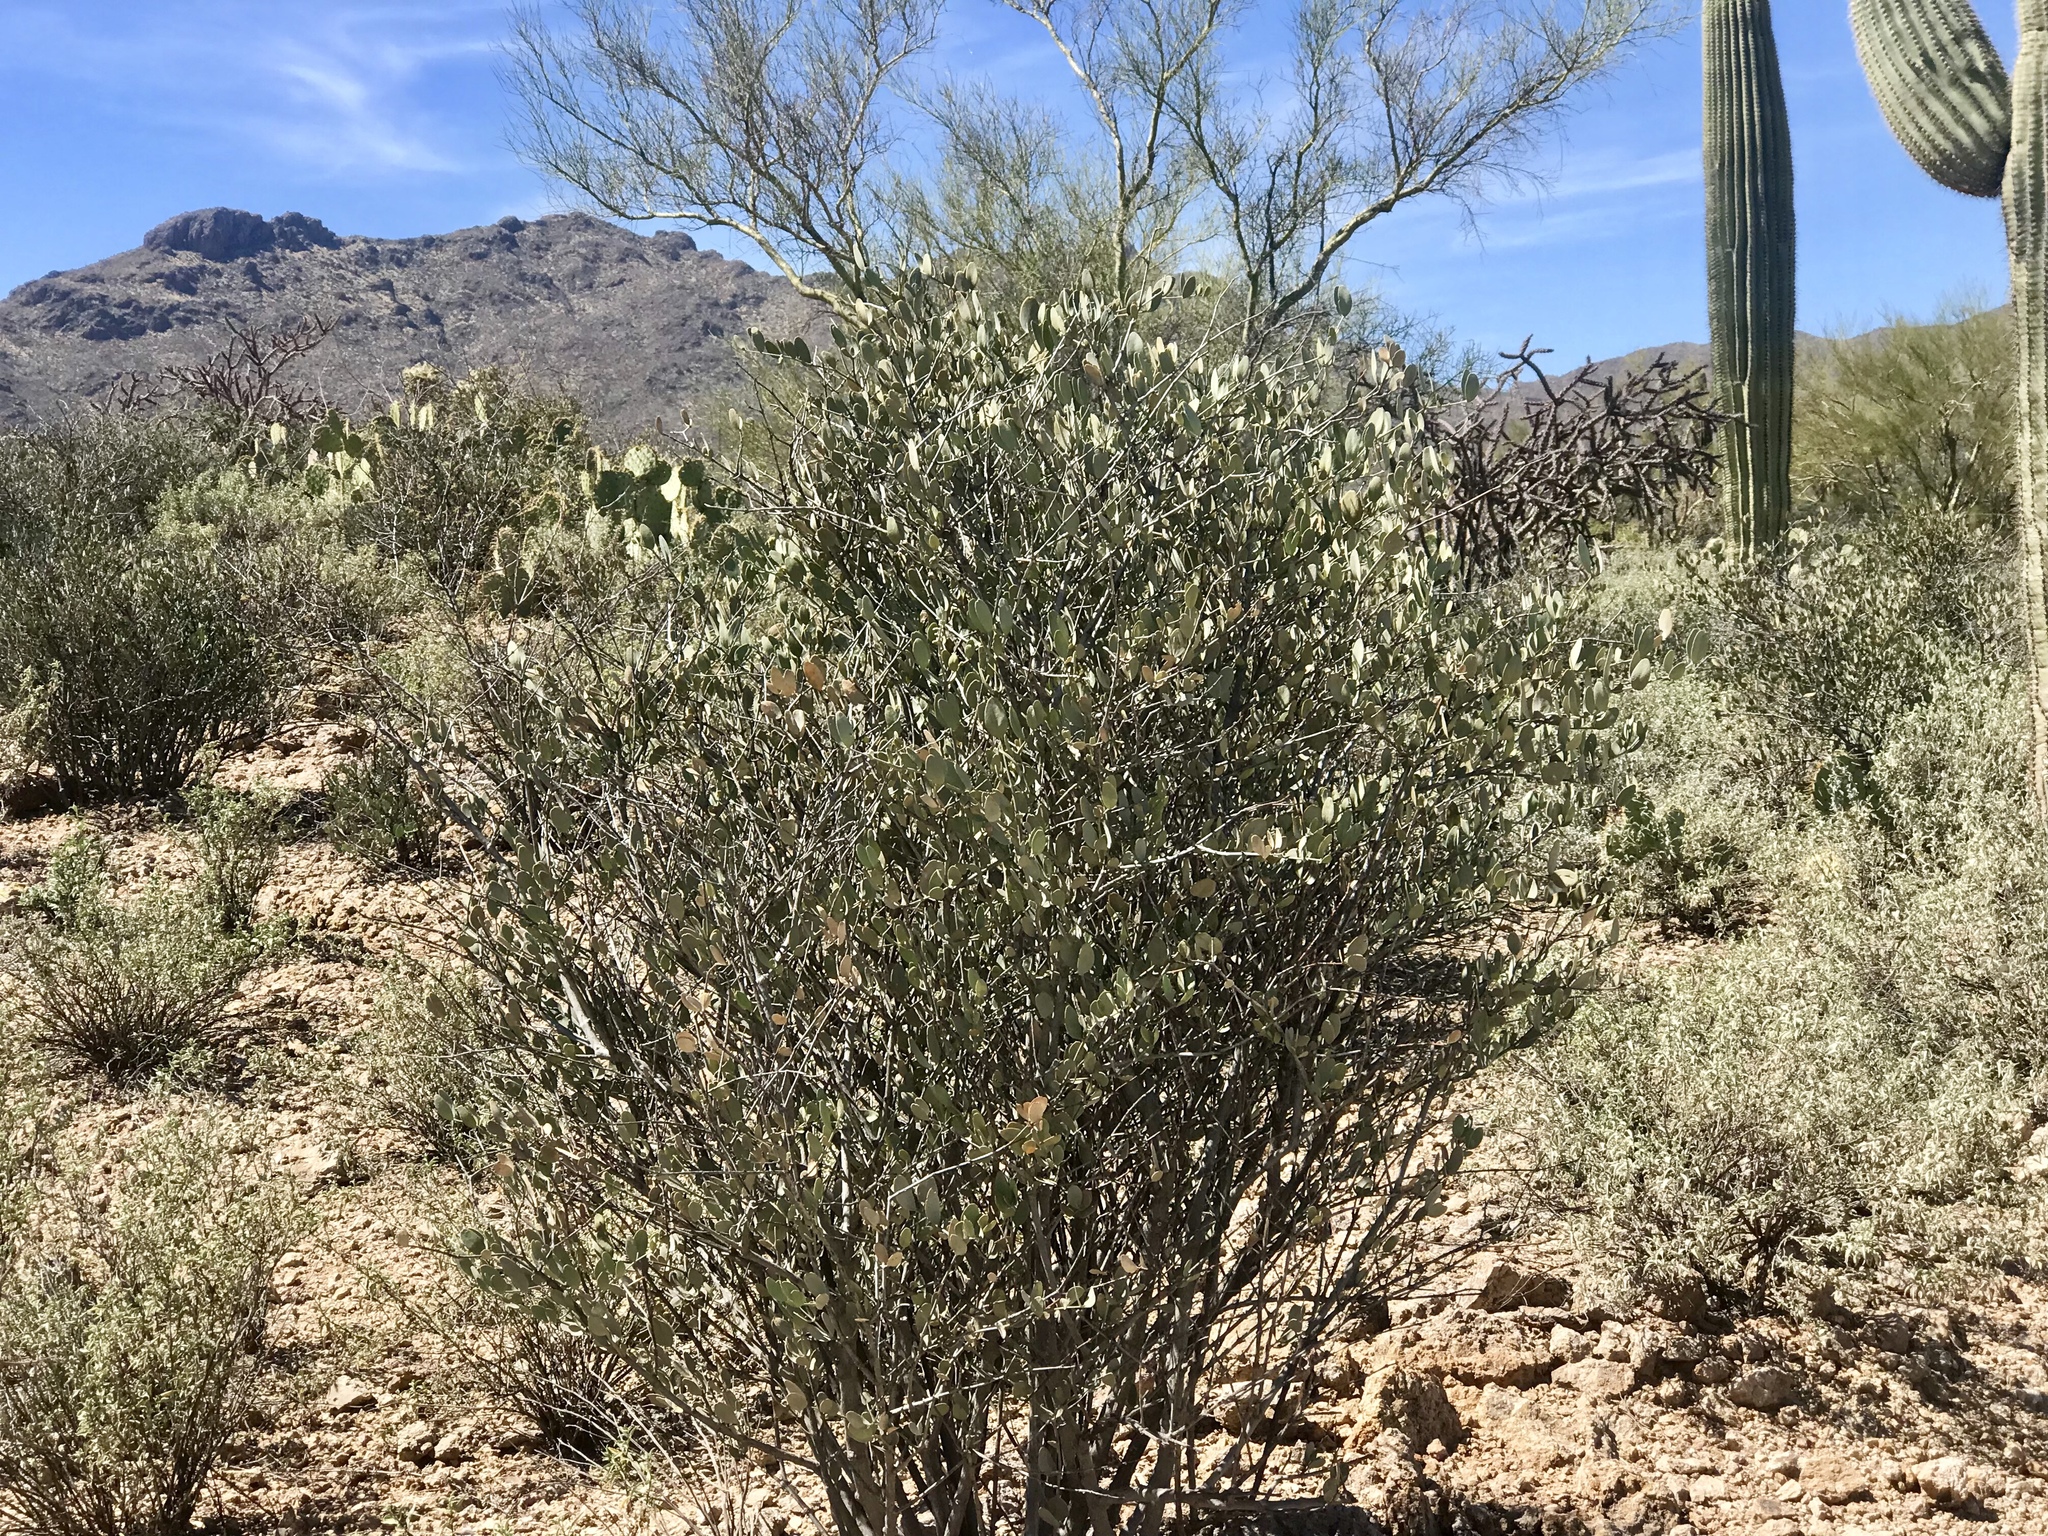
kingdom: Plantae
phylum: Tracheophyta
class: Magnoliopsida
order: Caryophyllales
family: Simmondsiaceae
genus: Simmondsia
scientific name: Simmondsia chinensis
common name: Jojoba
